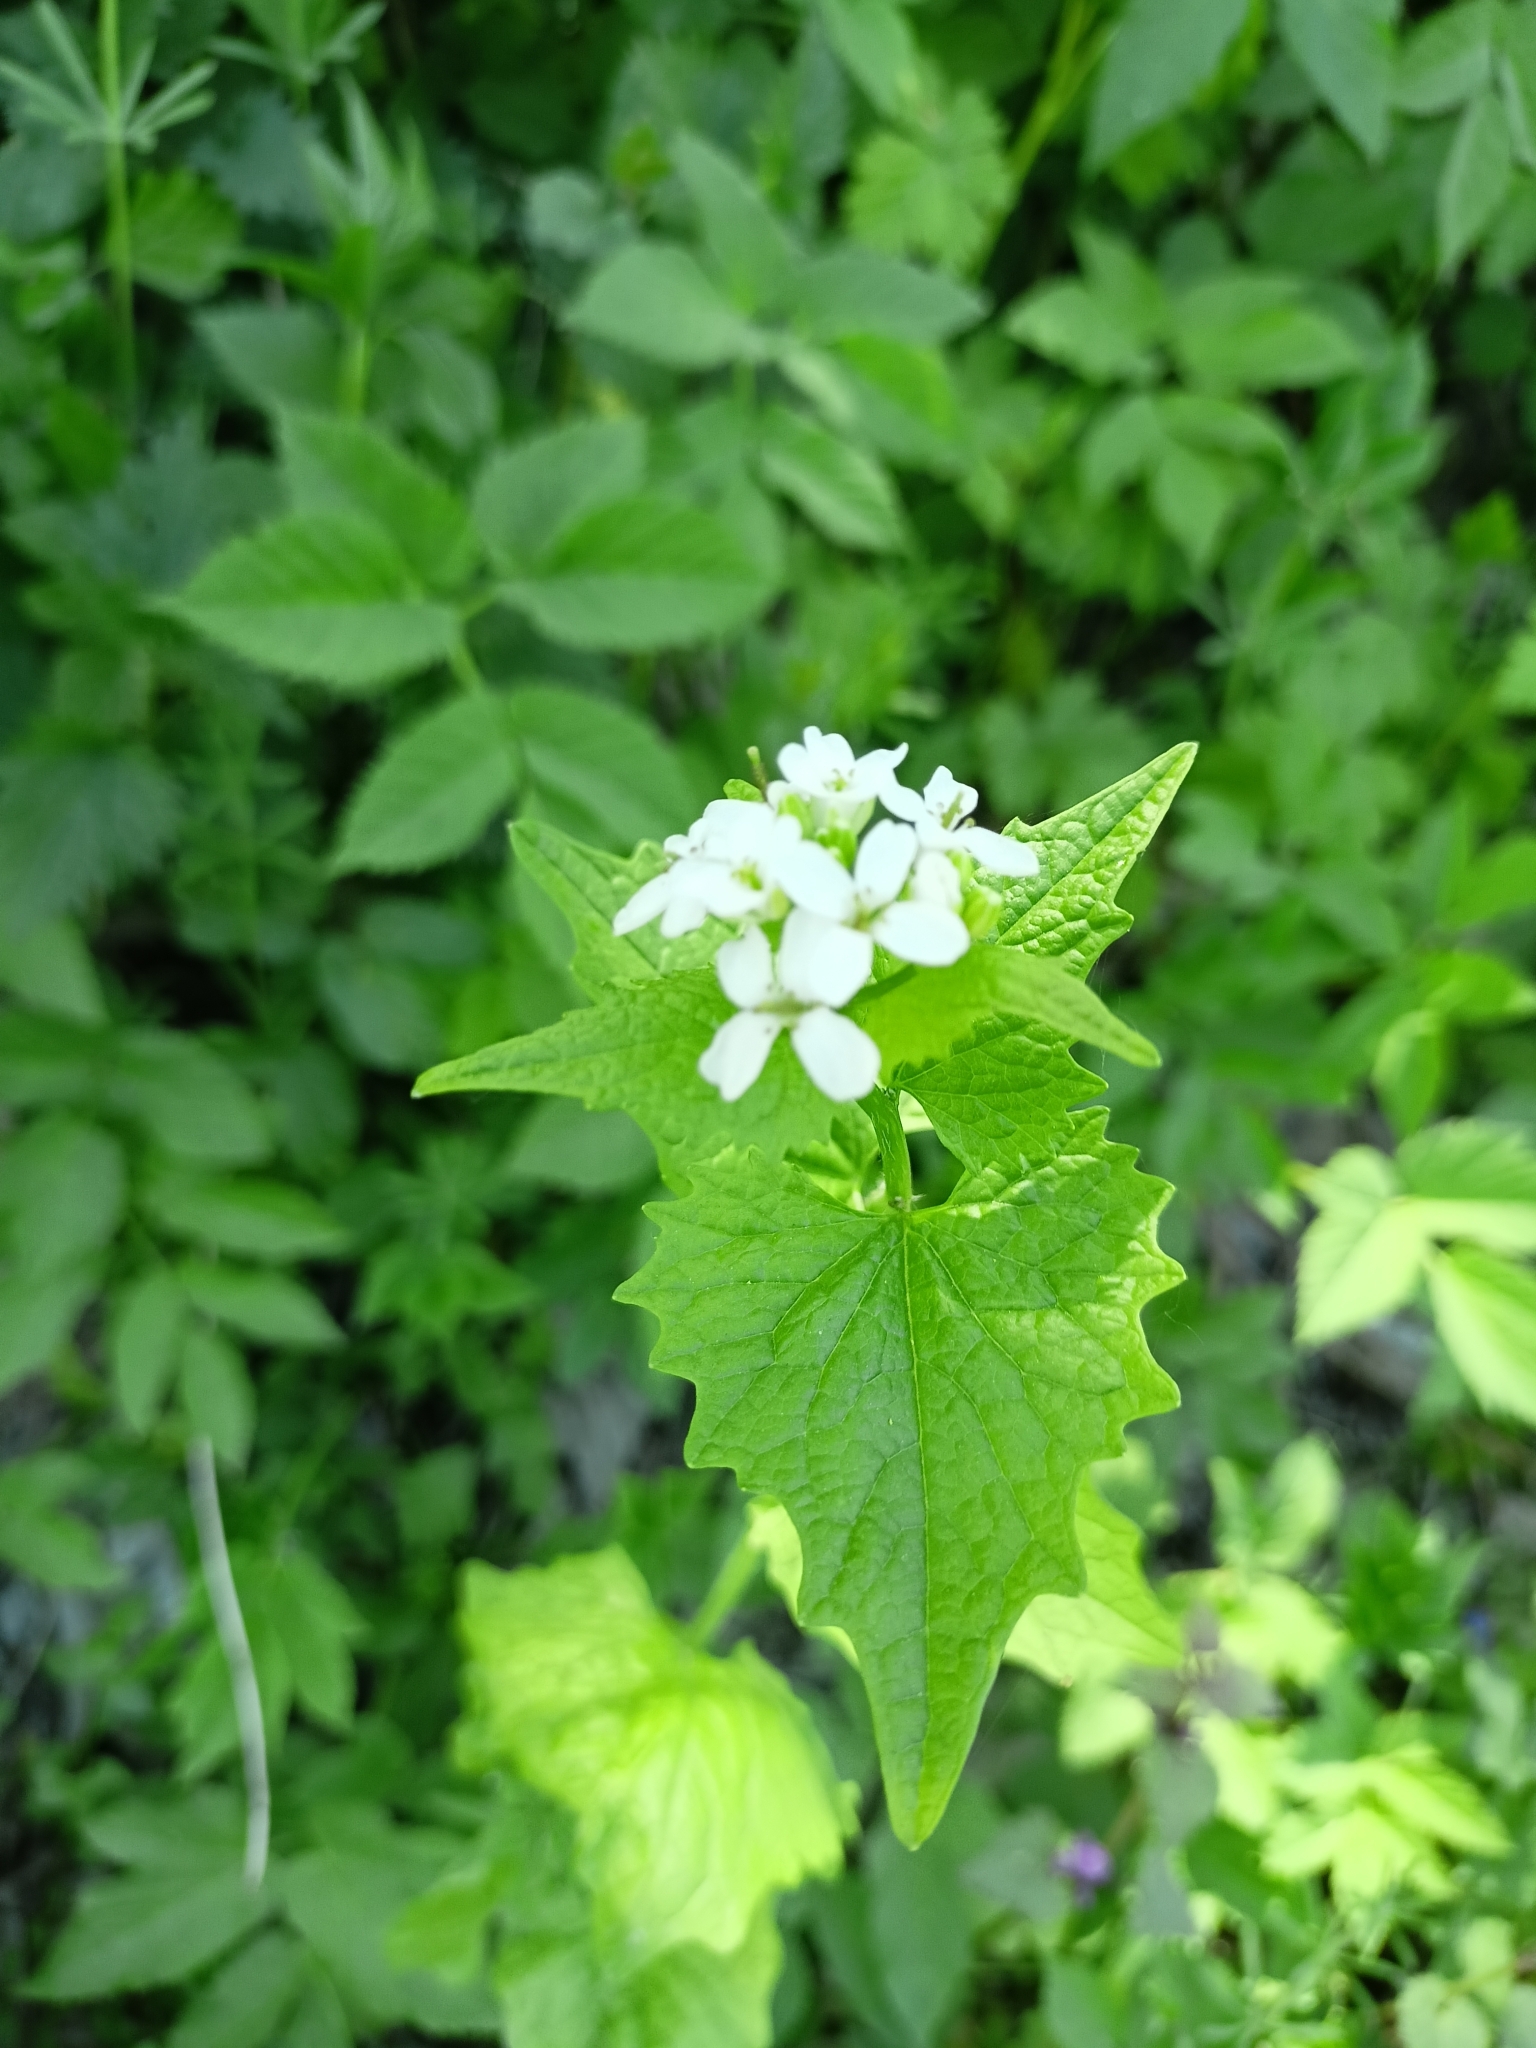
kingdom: Plantae
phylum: Tracheophyta
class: Magnoliopsida
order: Brassicales
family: Brassicaceae
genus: Alliaria
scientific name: Alliaria petiolata
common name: Garlic mustard
